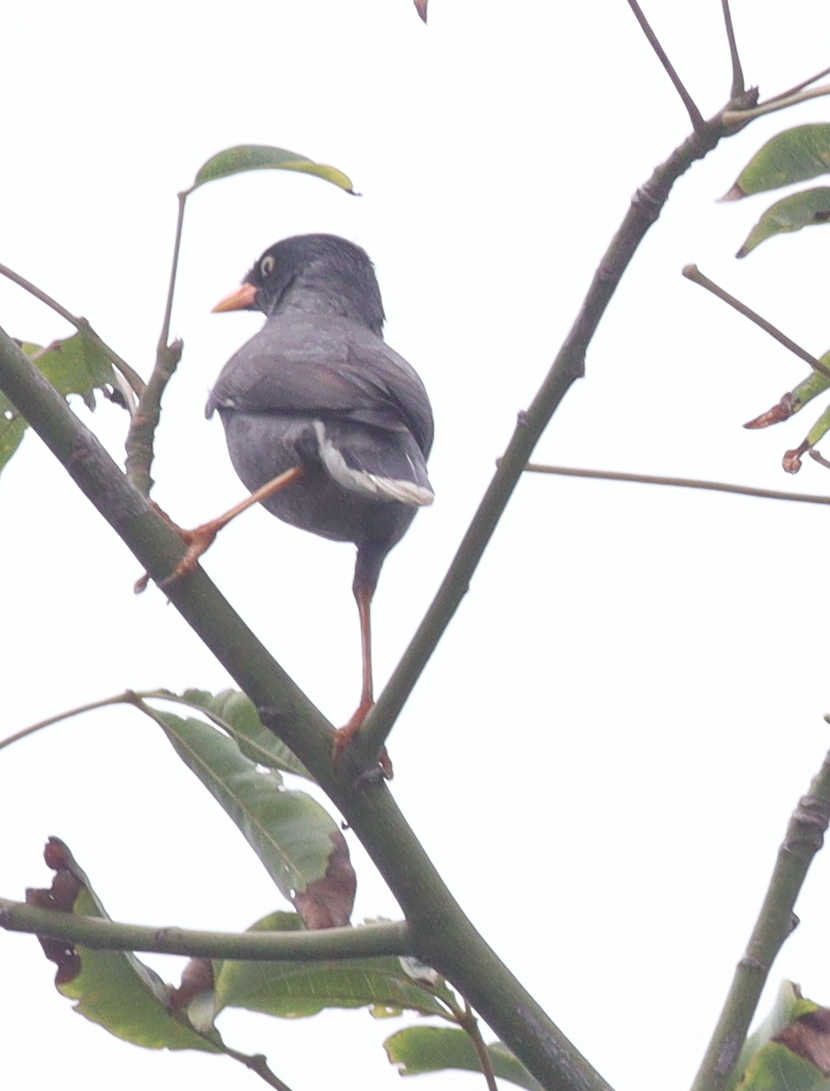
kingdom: Animalia
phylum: Chordata
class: Aves
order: Passeriformes
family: Sturnidae
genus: Acridotheres
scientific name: Acridotheres javanicus
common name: Javan myna
